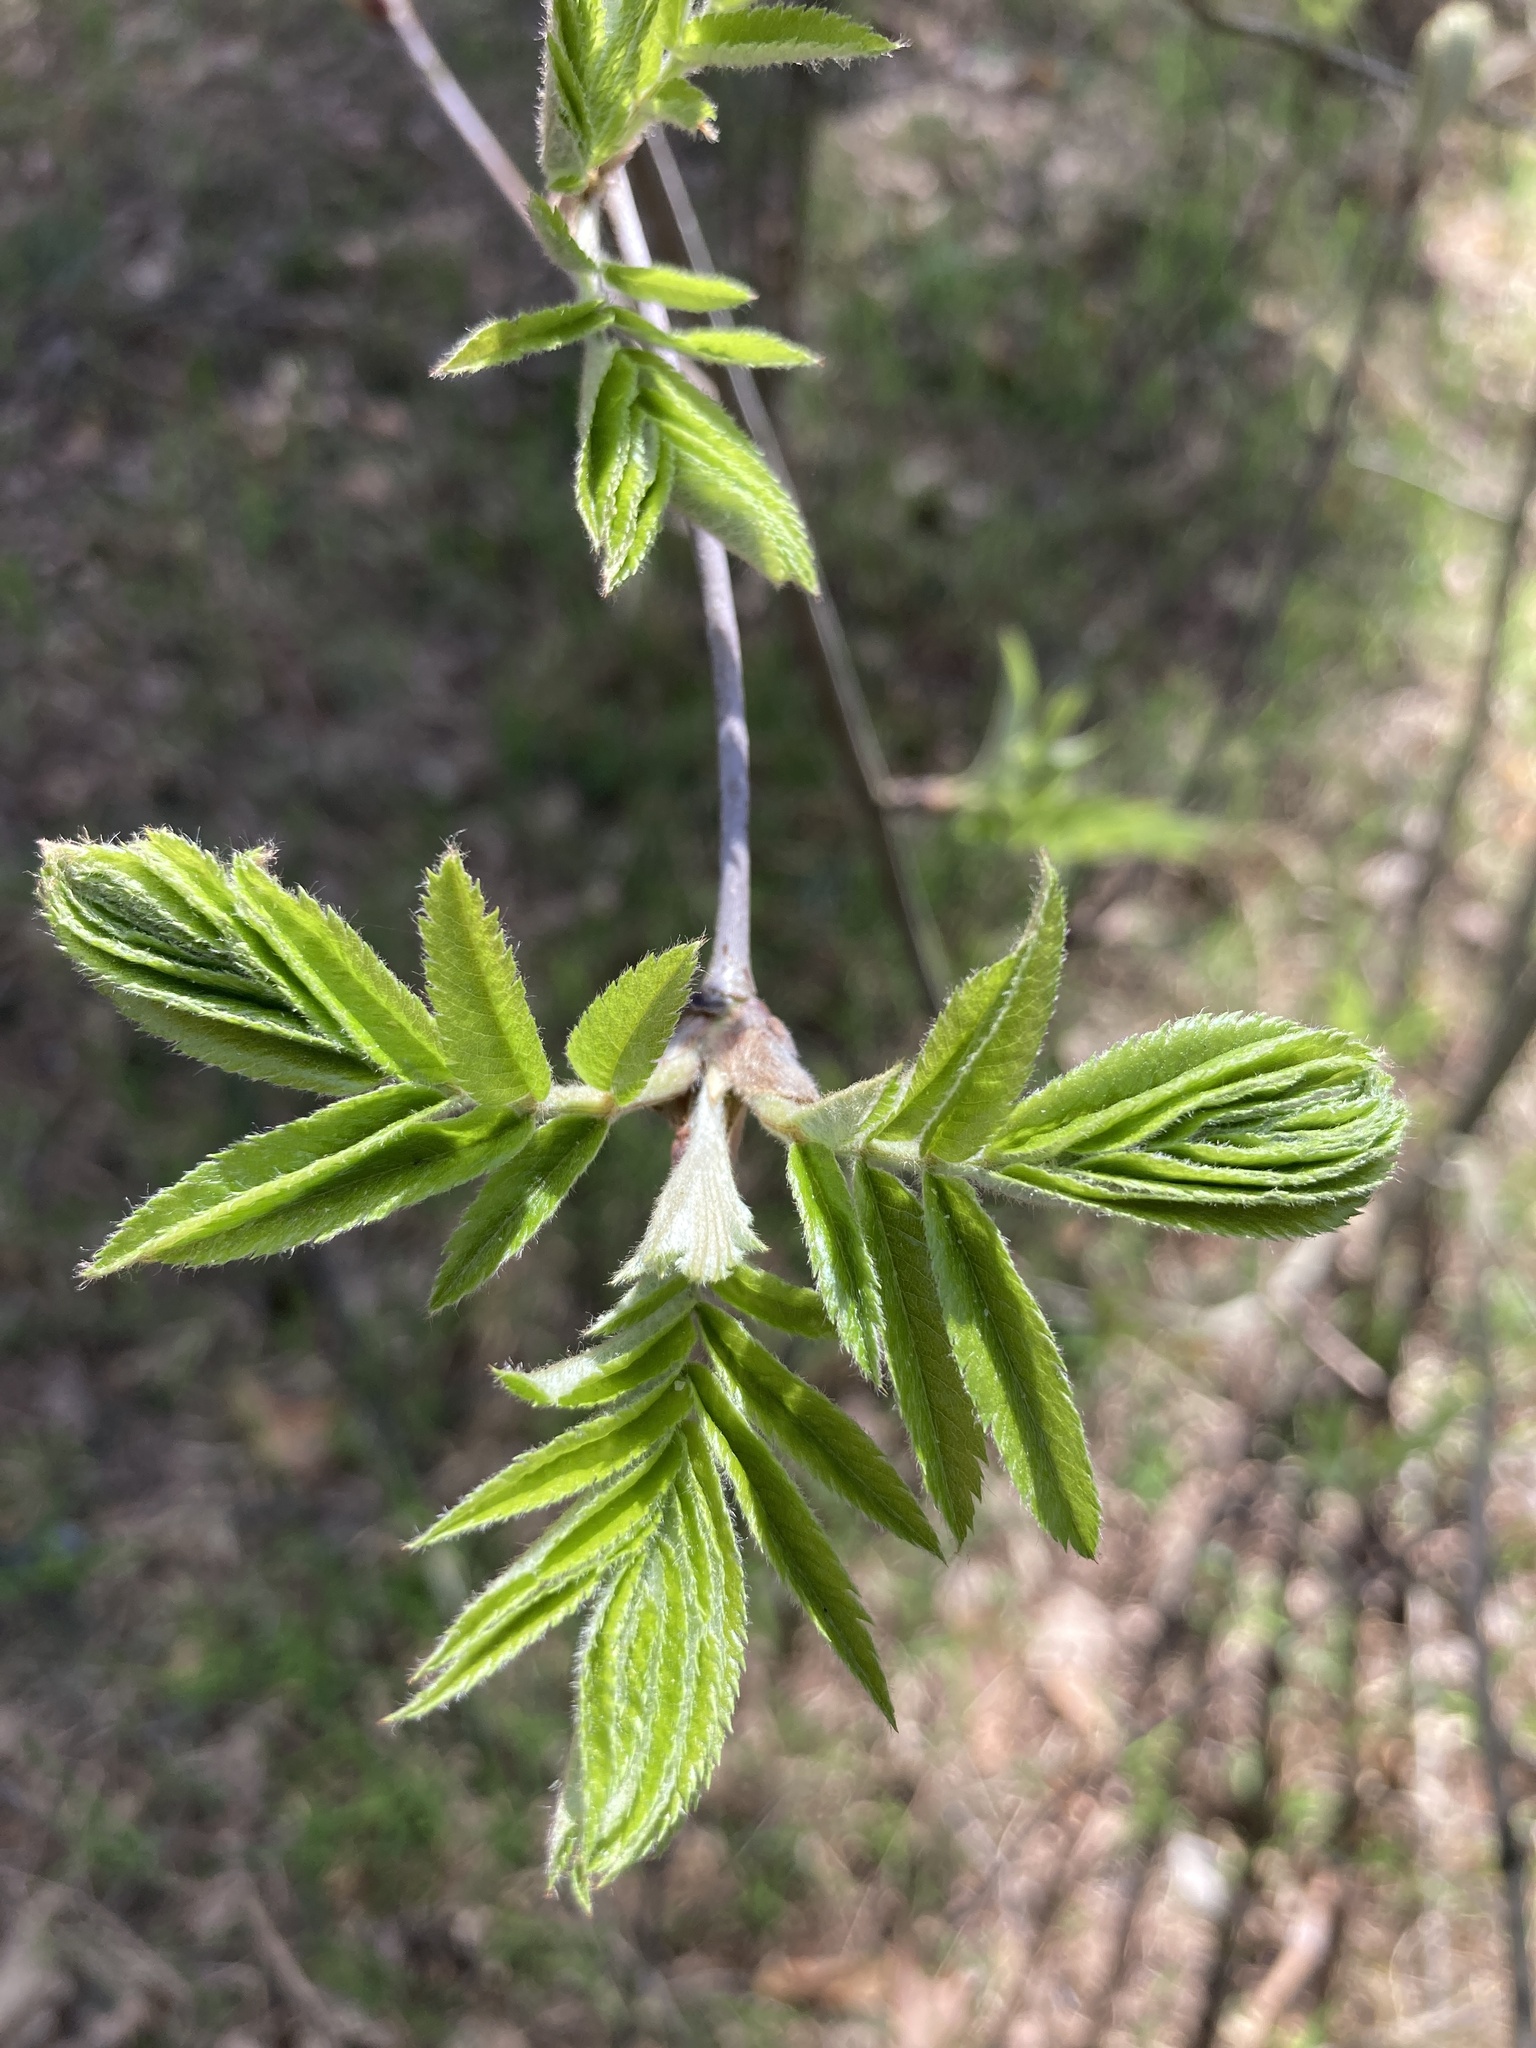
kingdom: Plantae
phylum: Tracheophyta
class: Magnoliopsida
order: Rosales
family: Rosaceae
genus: Sorbus
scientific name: Sorbus aucuparia
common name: Rowan
